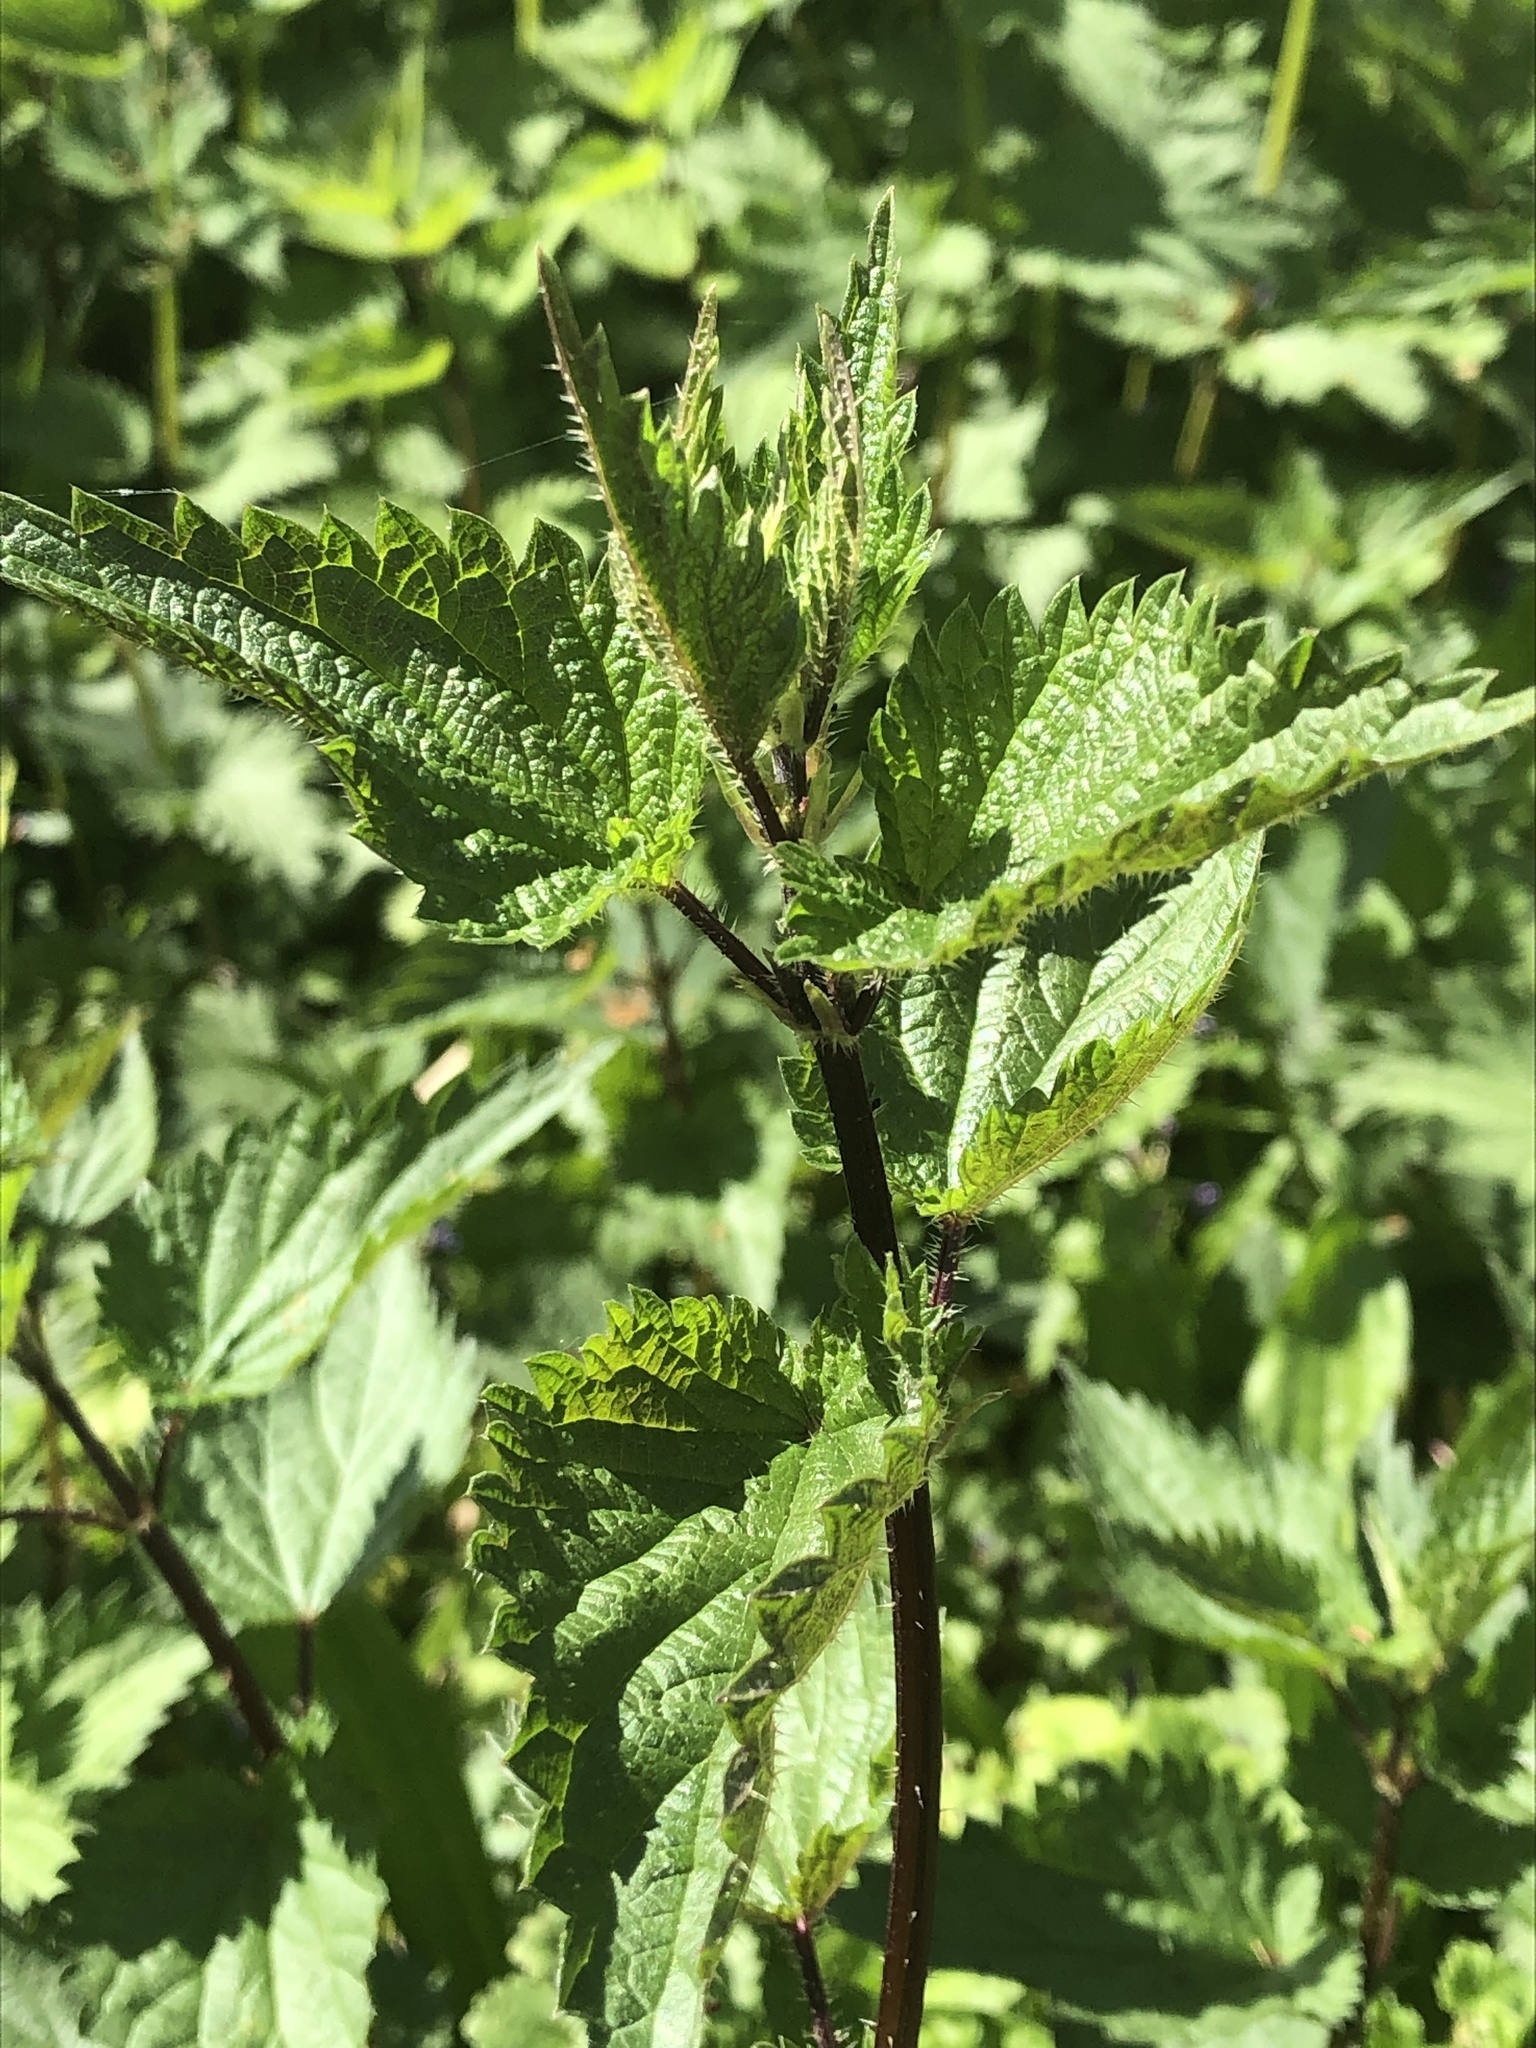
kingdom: Plantae
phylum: Tracheophyta
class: Magnoliopsida
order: Rosales
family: Urticaceae
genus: Urtica
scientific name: Urtica dioica
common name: Common nettle
